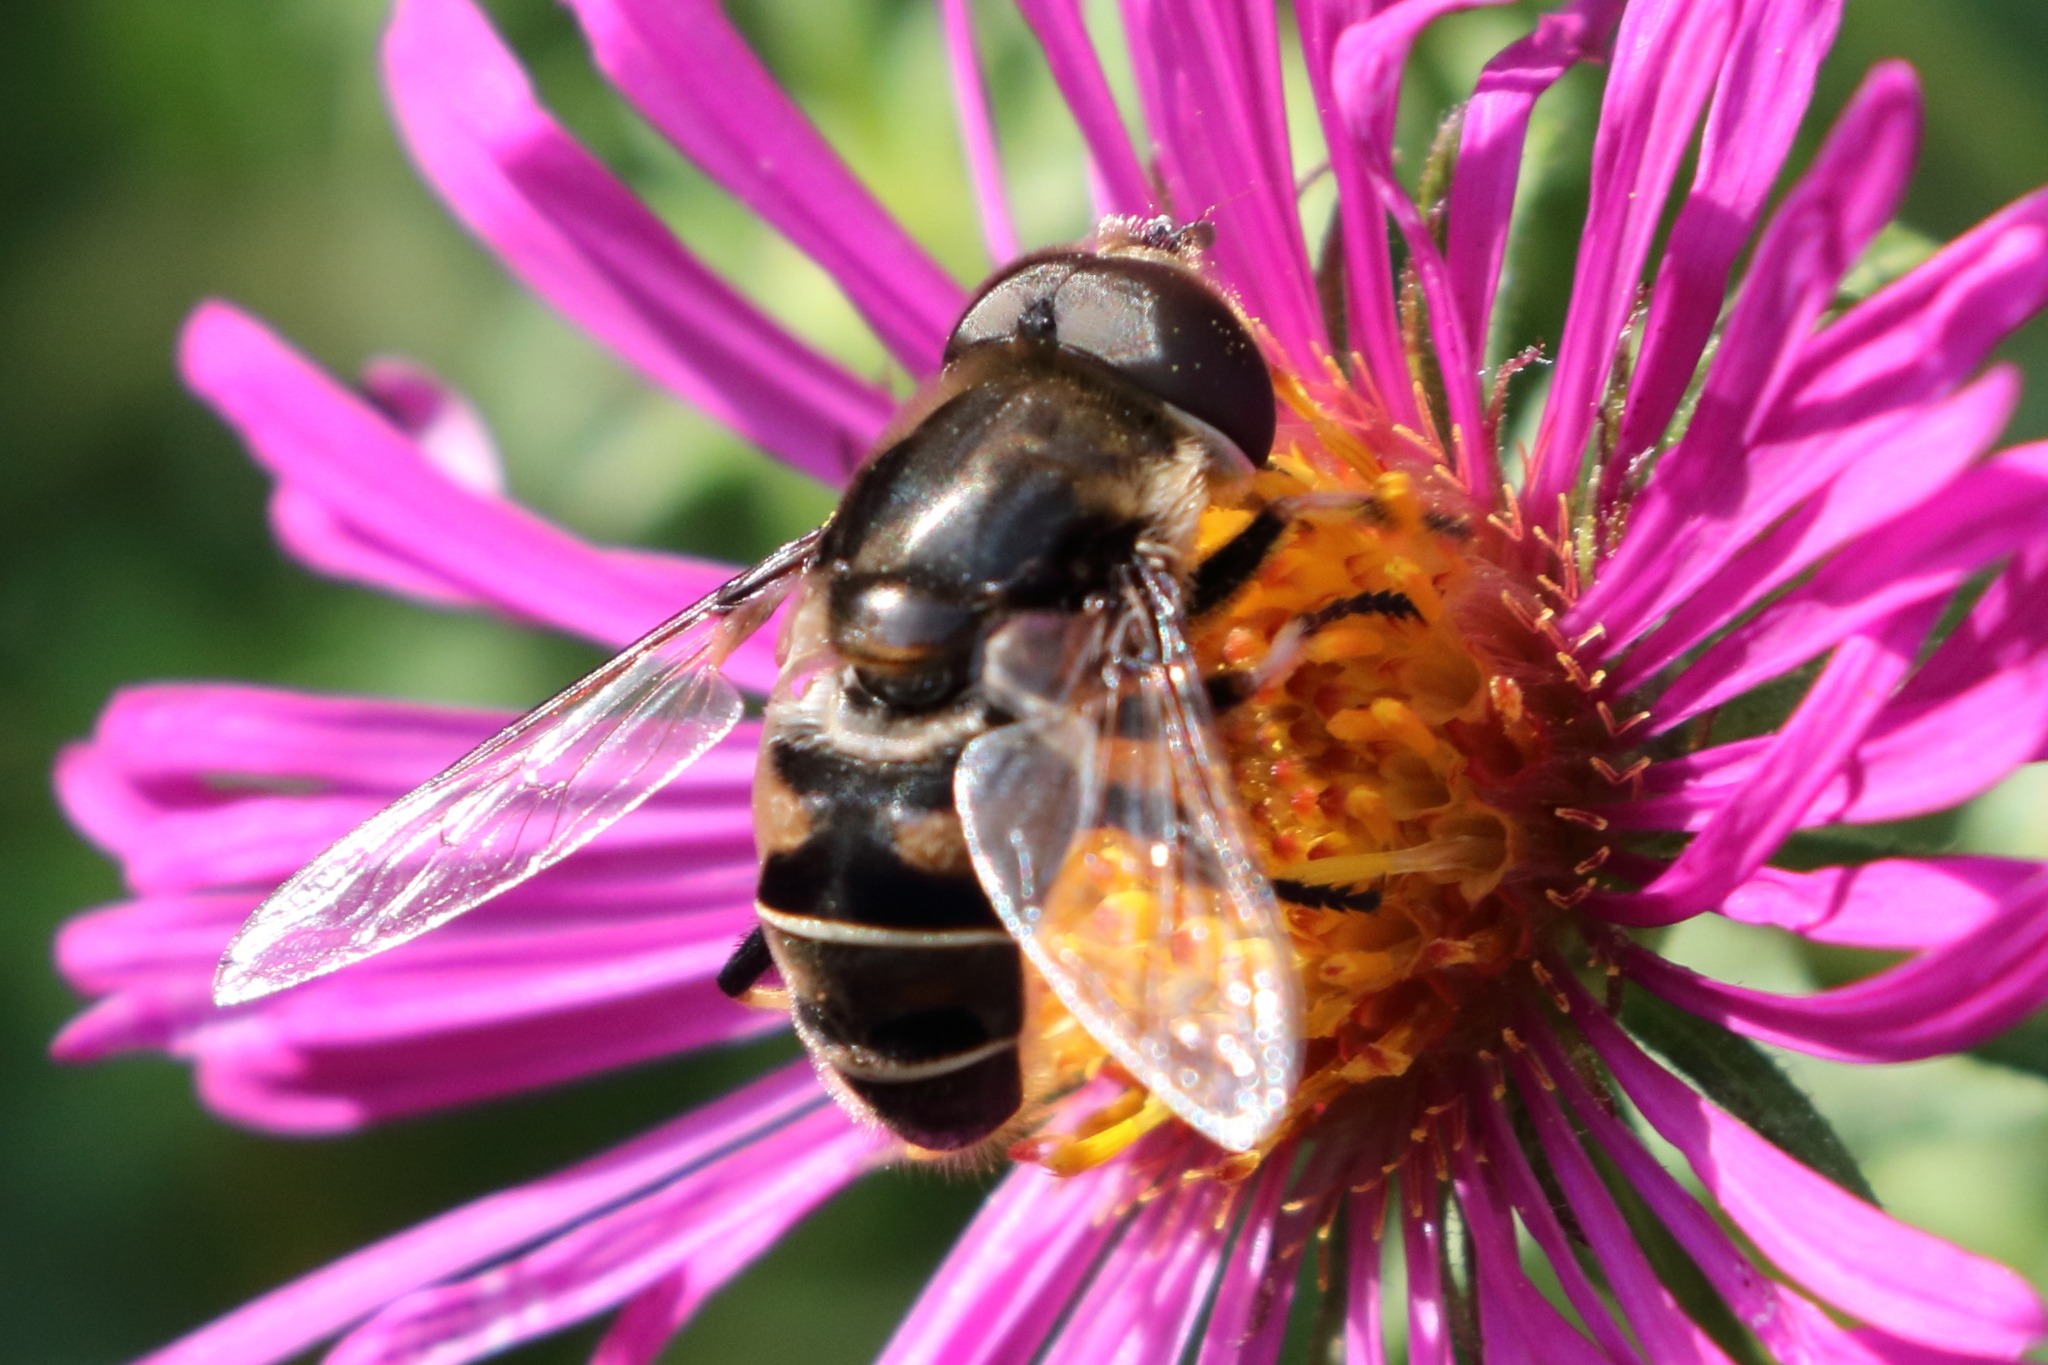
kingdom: Animalia
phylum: Arthropoda
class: Insecta
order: Diptera
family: Syrphidae
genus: Eristalis
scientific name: Eristalis dimidiata
